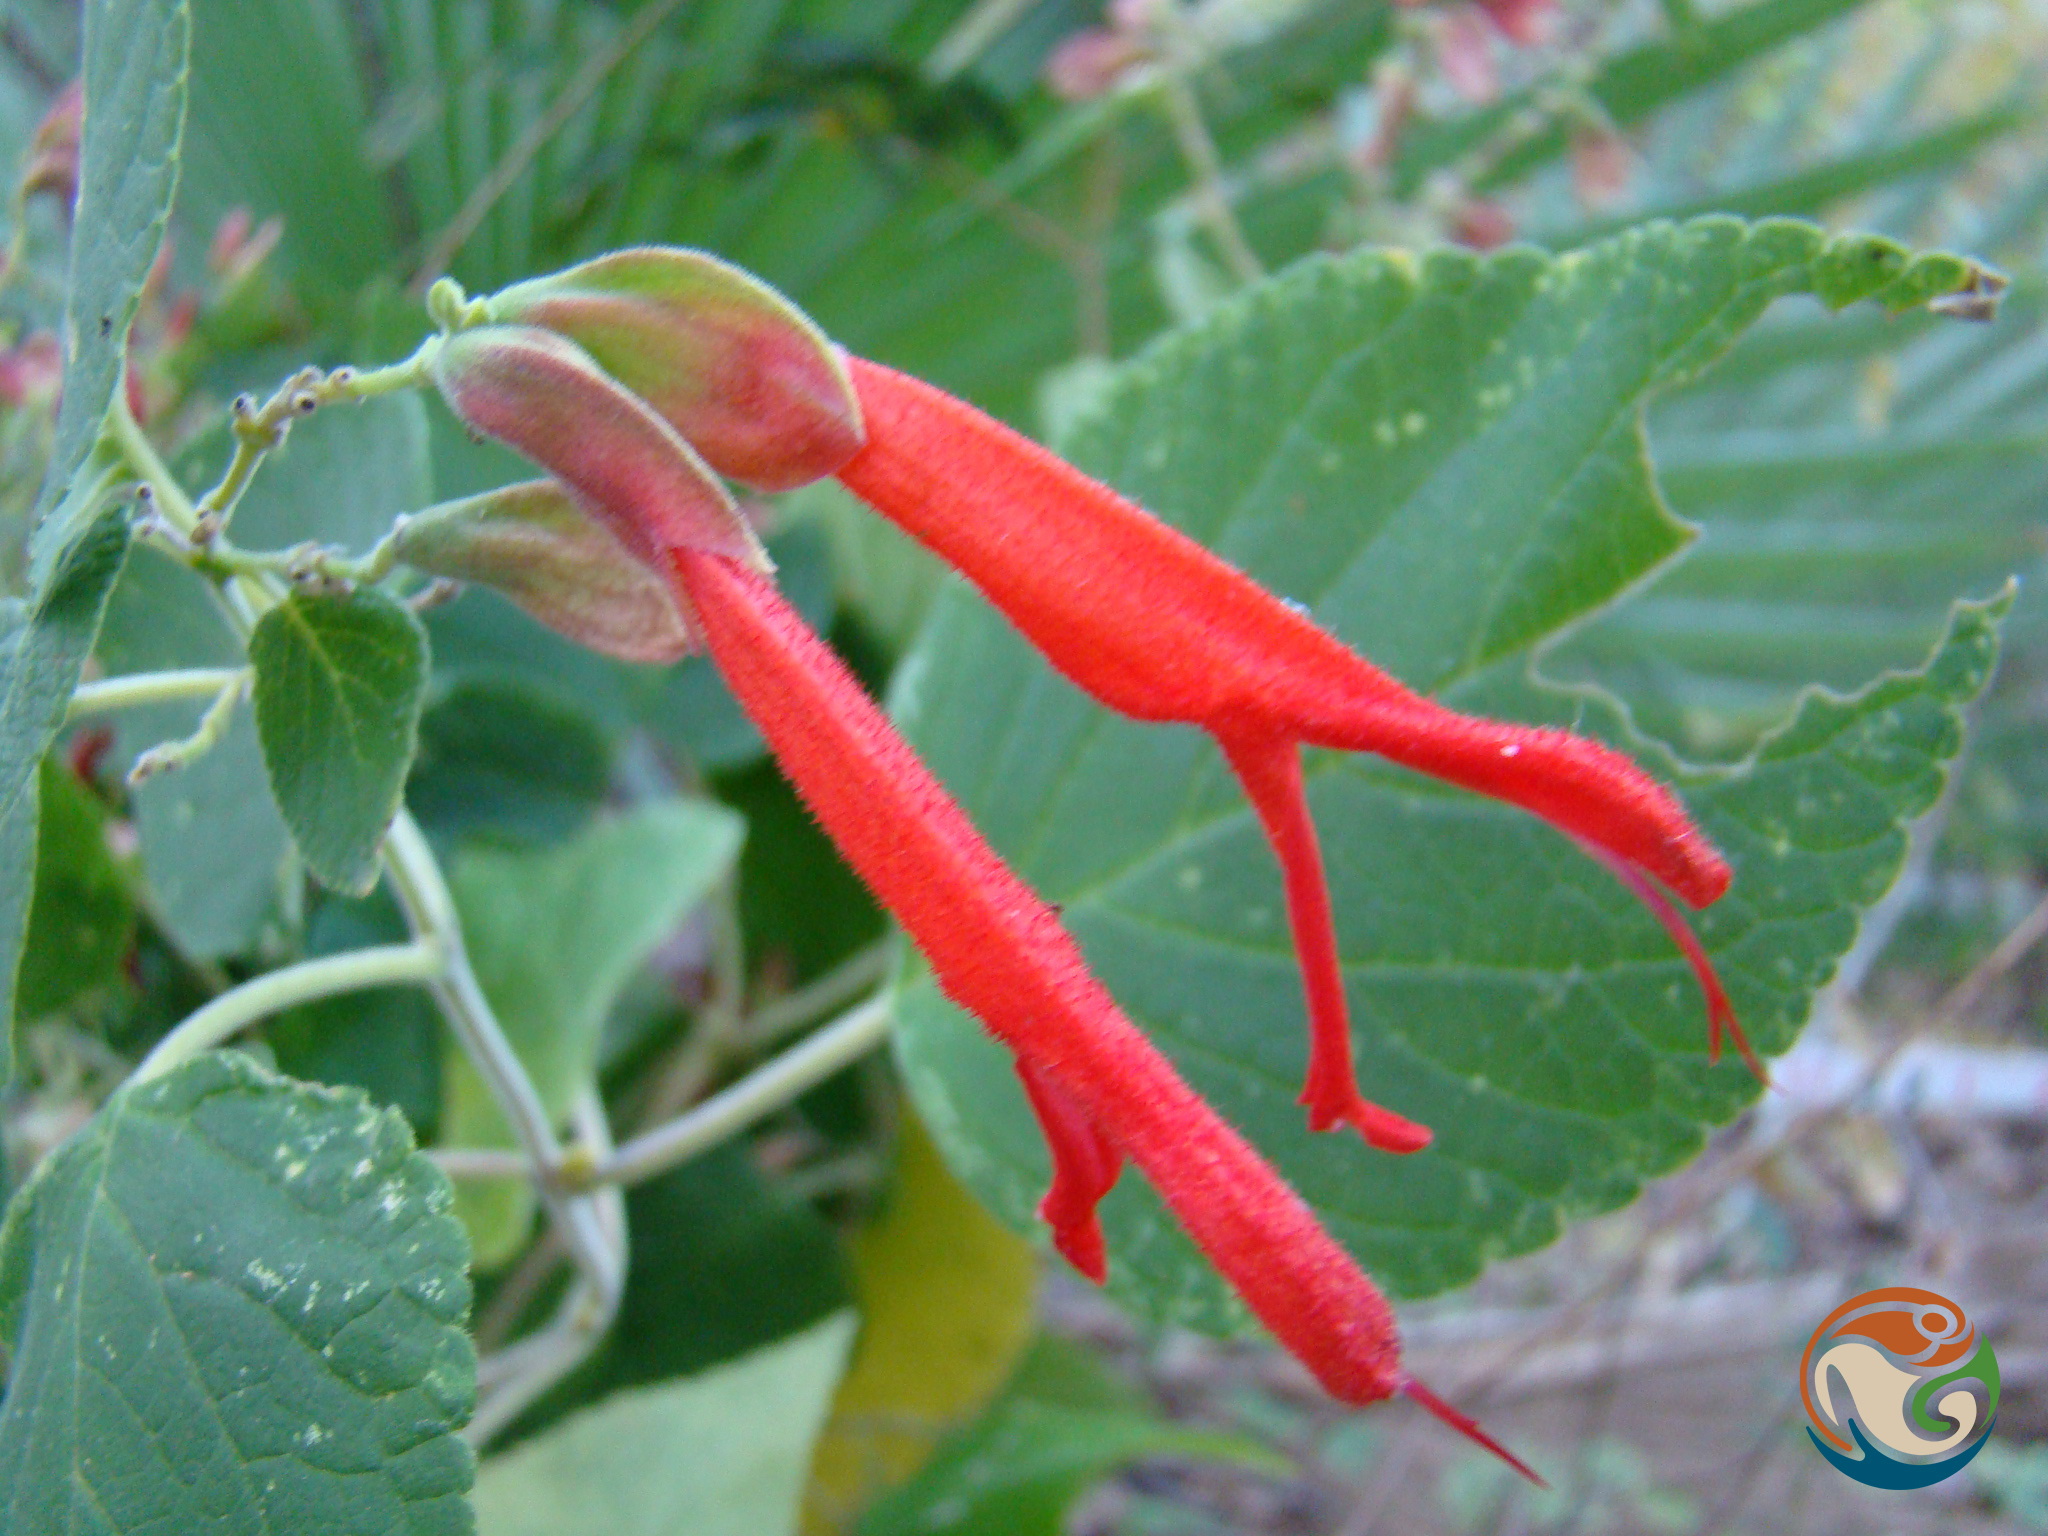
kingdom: Plantae
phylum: Tracheophyta
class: Magnoliopsida
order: Lamiales
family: Lamiaceae
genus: Salvia
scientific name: Salvia pubescens
